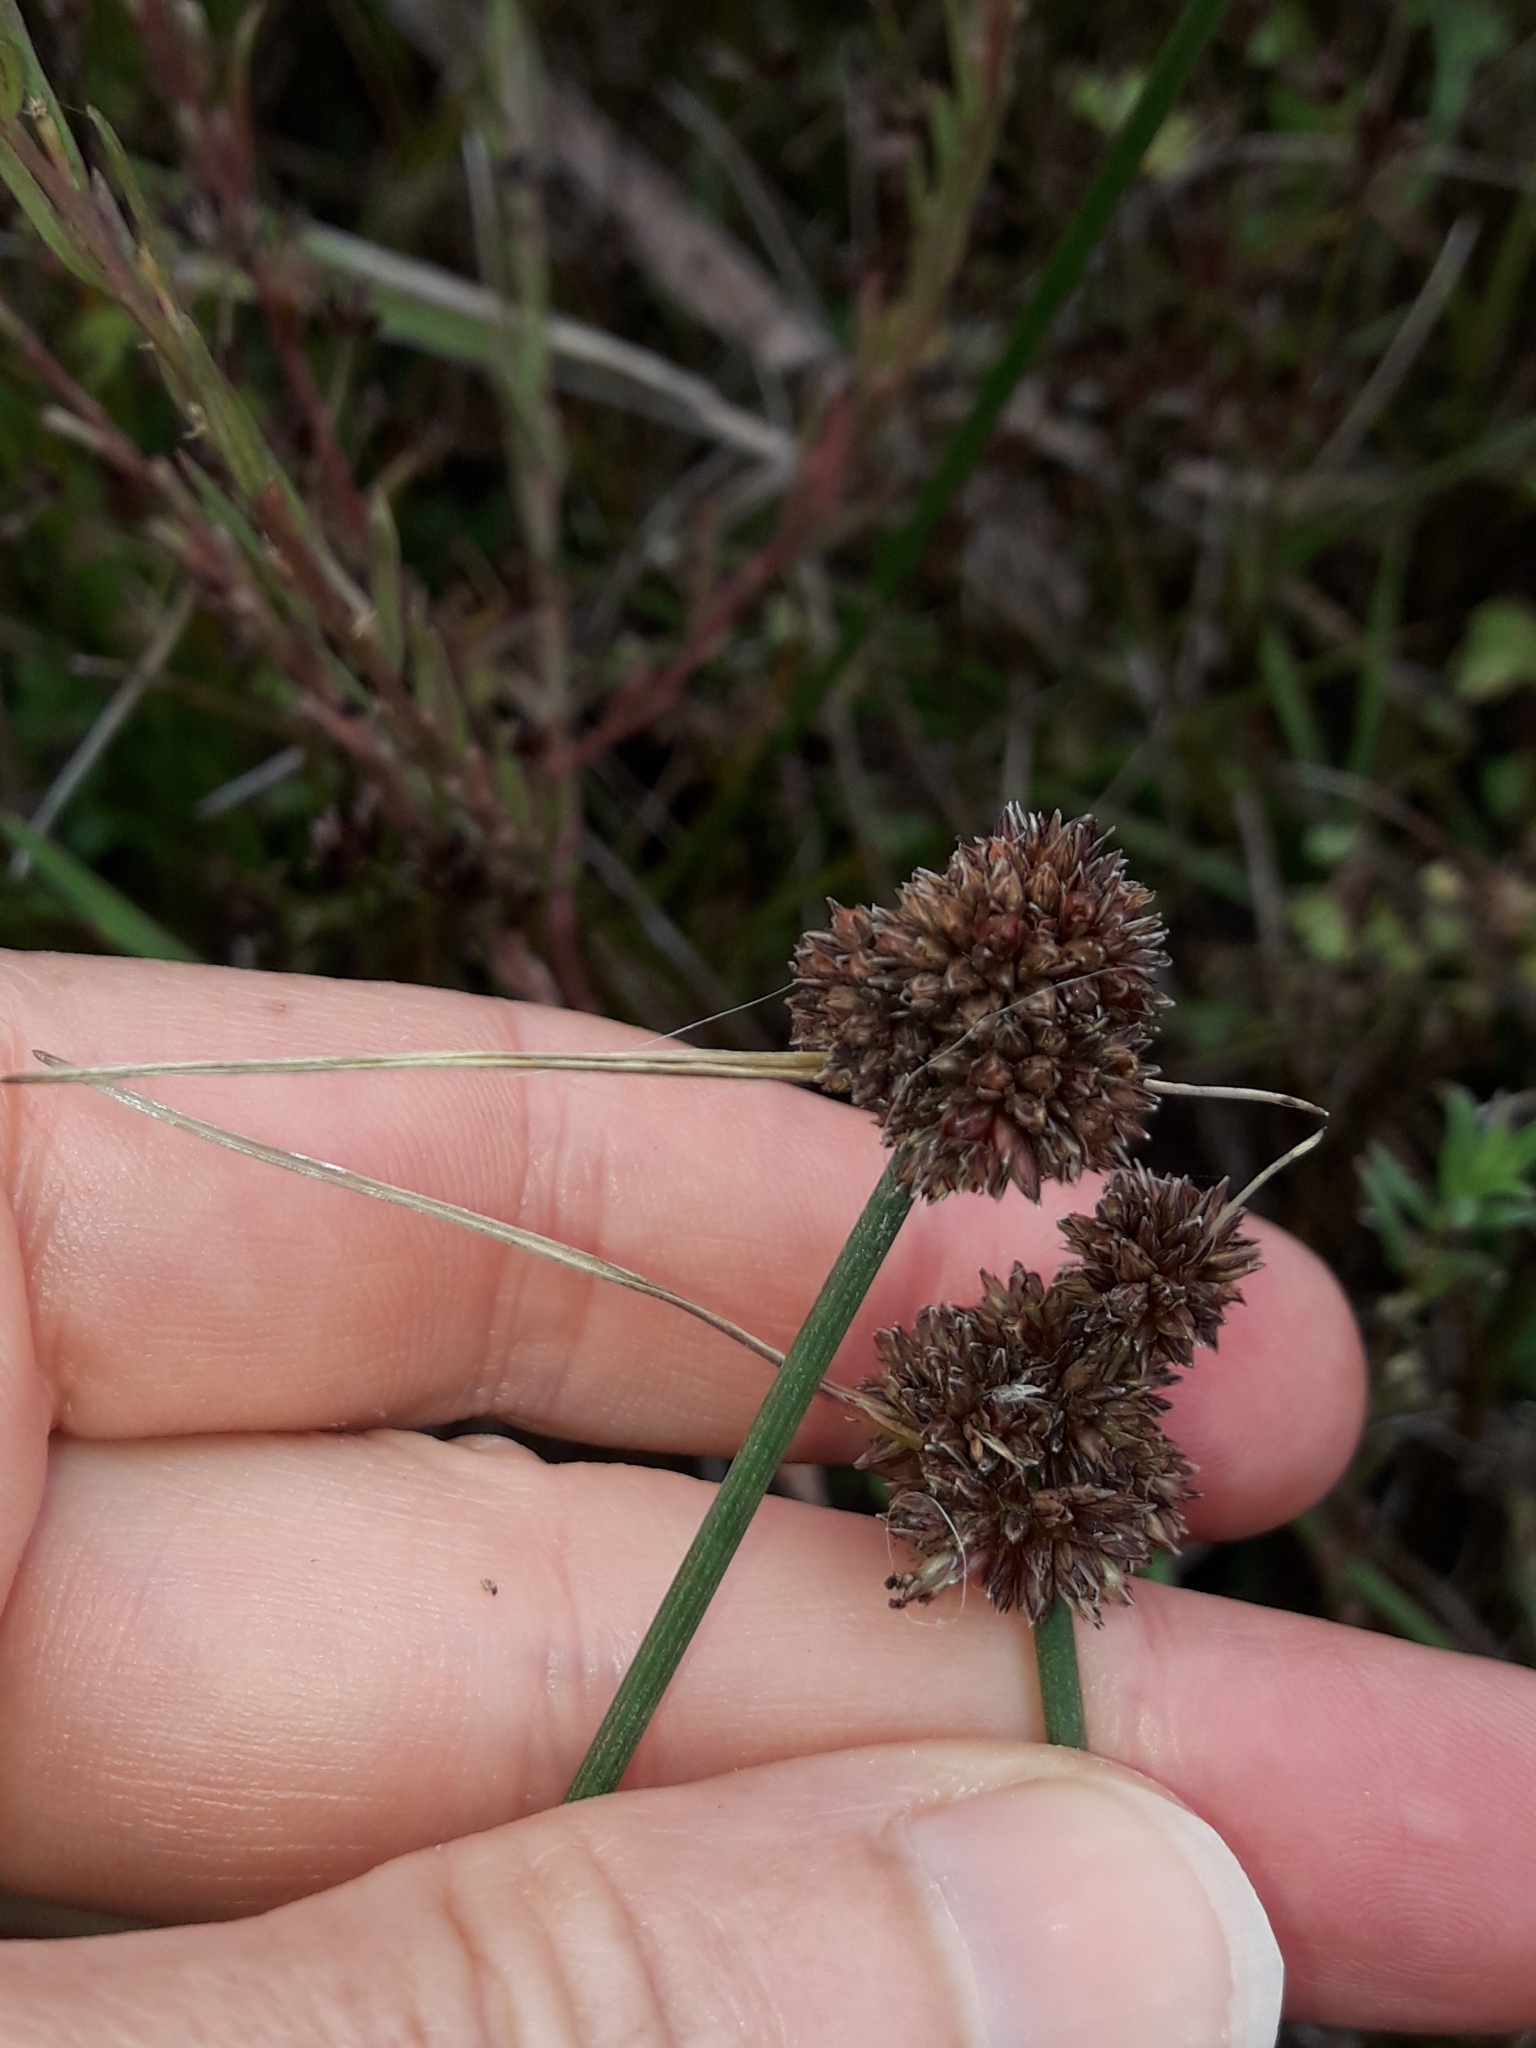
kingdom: Plantae
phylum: Tracheophyta
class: Liliopsida
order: Poales
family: Juncaceae
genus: Juncus
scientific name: Juncus caespiticius
